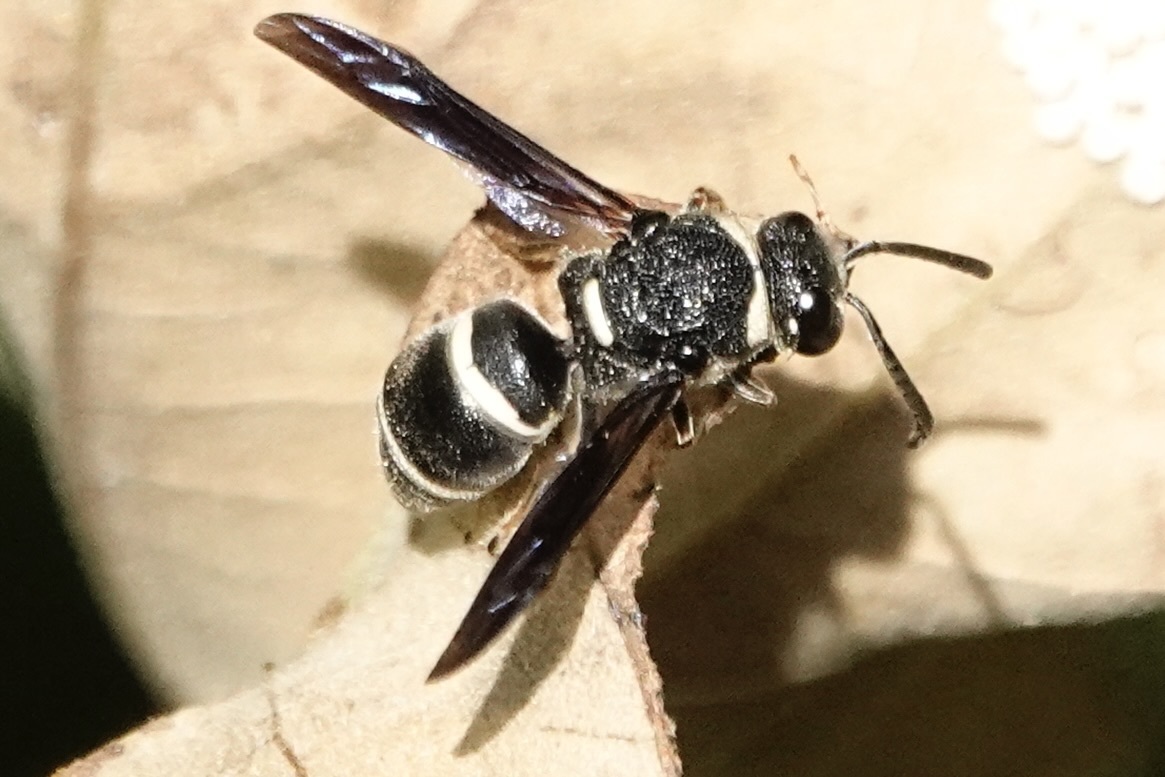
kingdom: Animalia
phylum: Arthropoda
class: Insecta
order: Hymenoptera
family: Eumenidae
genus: Euodynerus
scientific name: Euodynerus
